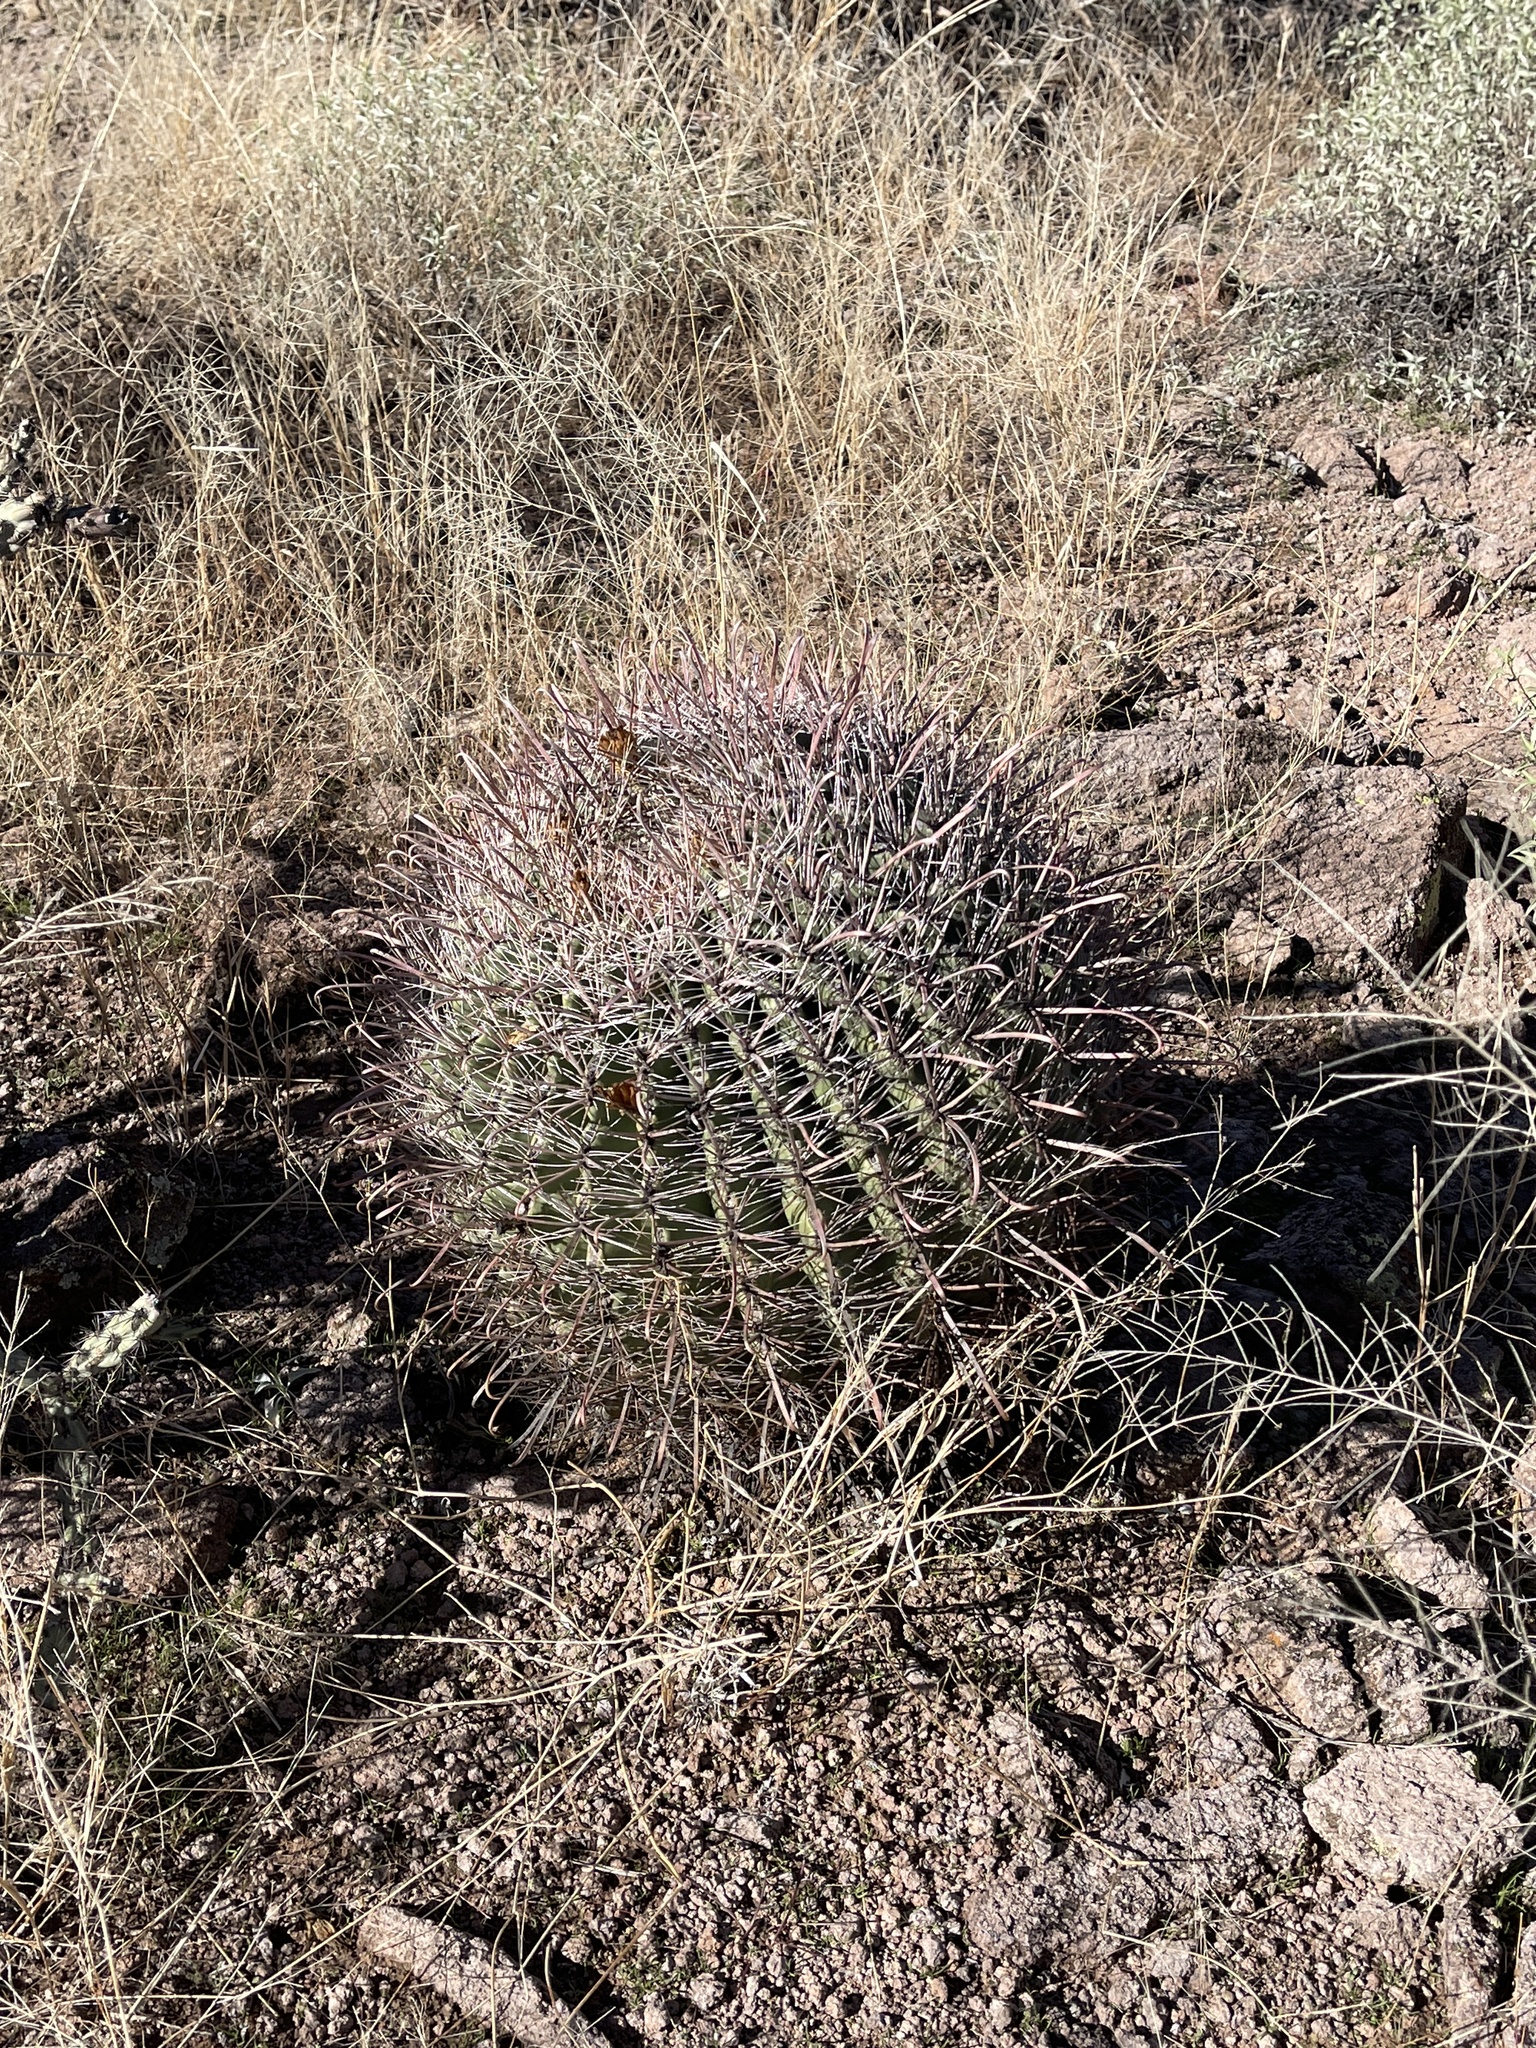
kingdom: Plantae
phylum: Tracheophyta
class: Magnoliopsida
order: Caryophyllales
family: Cactaceae
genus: Ferocactus
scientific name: Ferocactus wislizeni
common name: Candy barrel cactus
